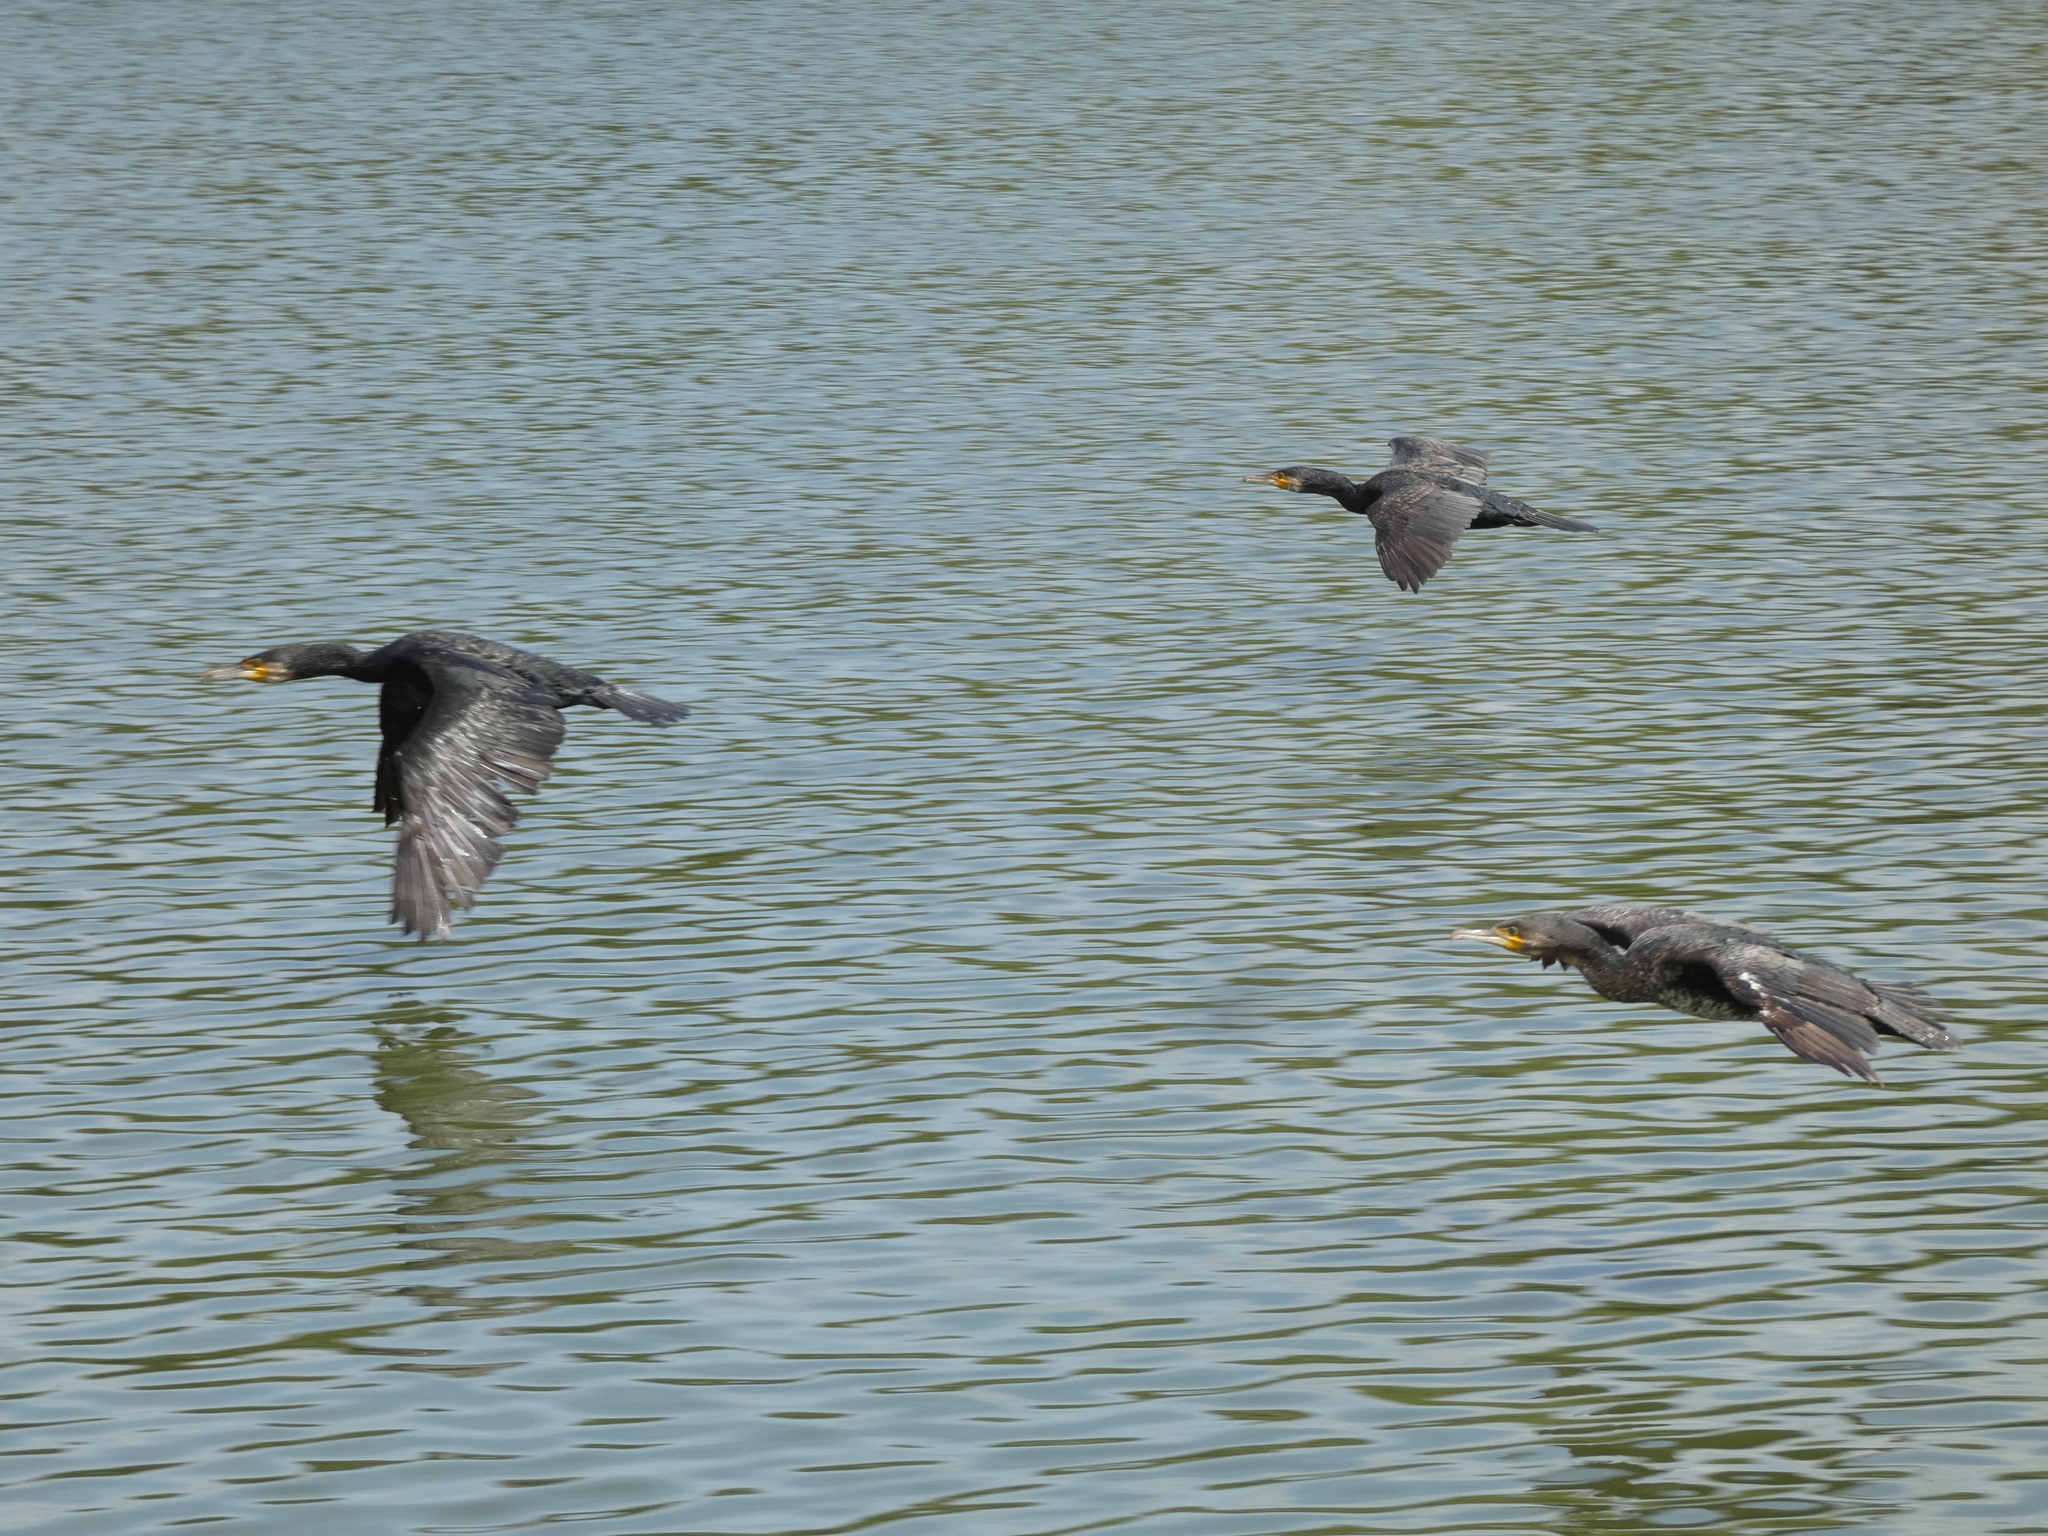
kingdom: Animalia
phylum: Chordata
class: Aves
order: Suliformes
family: Phalacrocoracidae
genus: Phalacrocorax
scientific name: Phalacrocorax carbo
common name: Great cormorant
